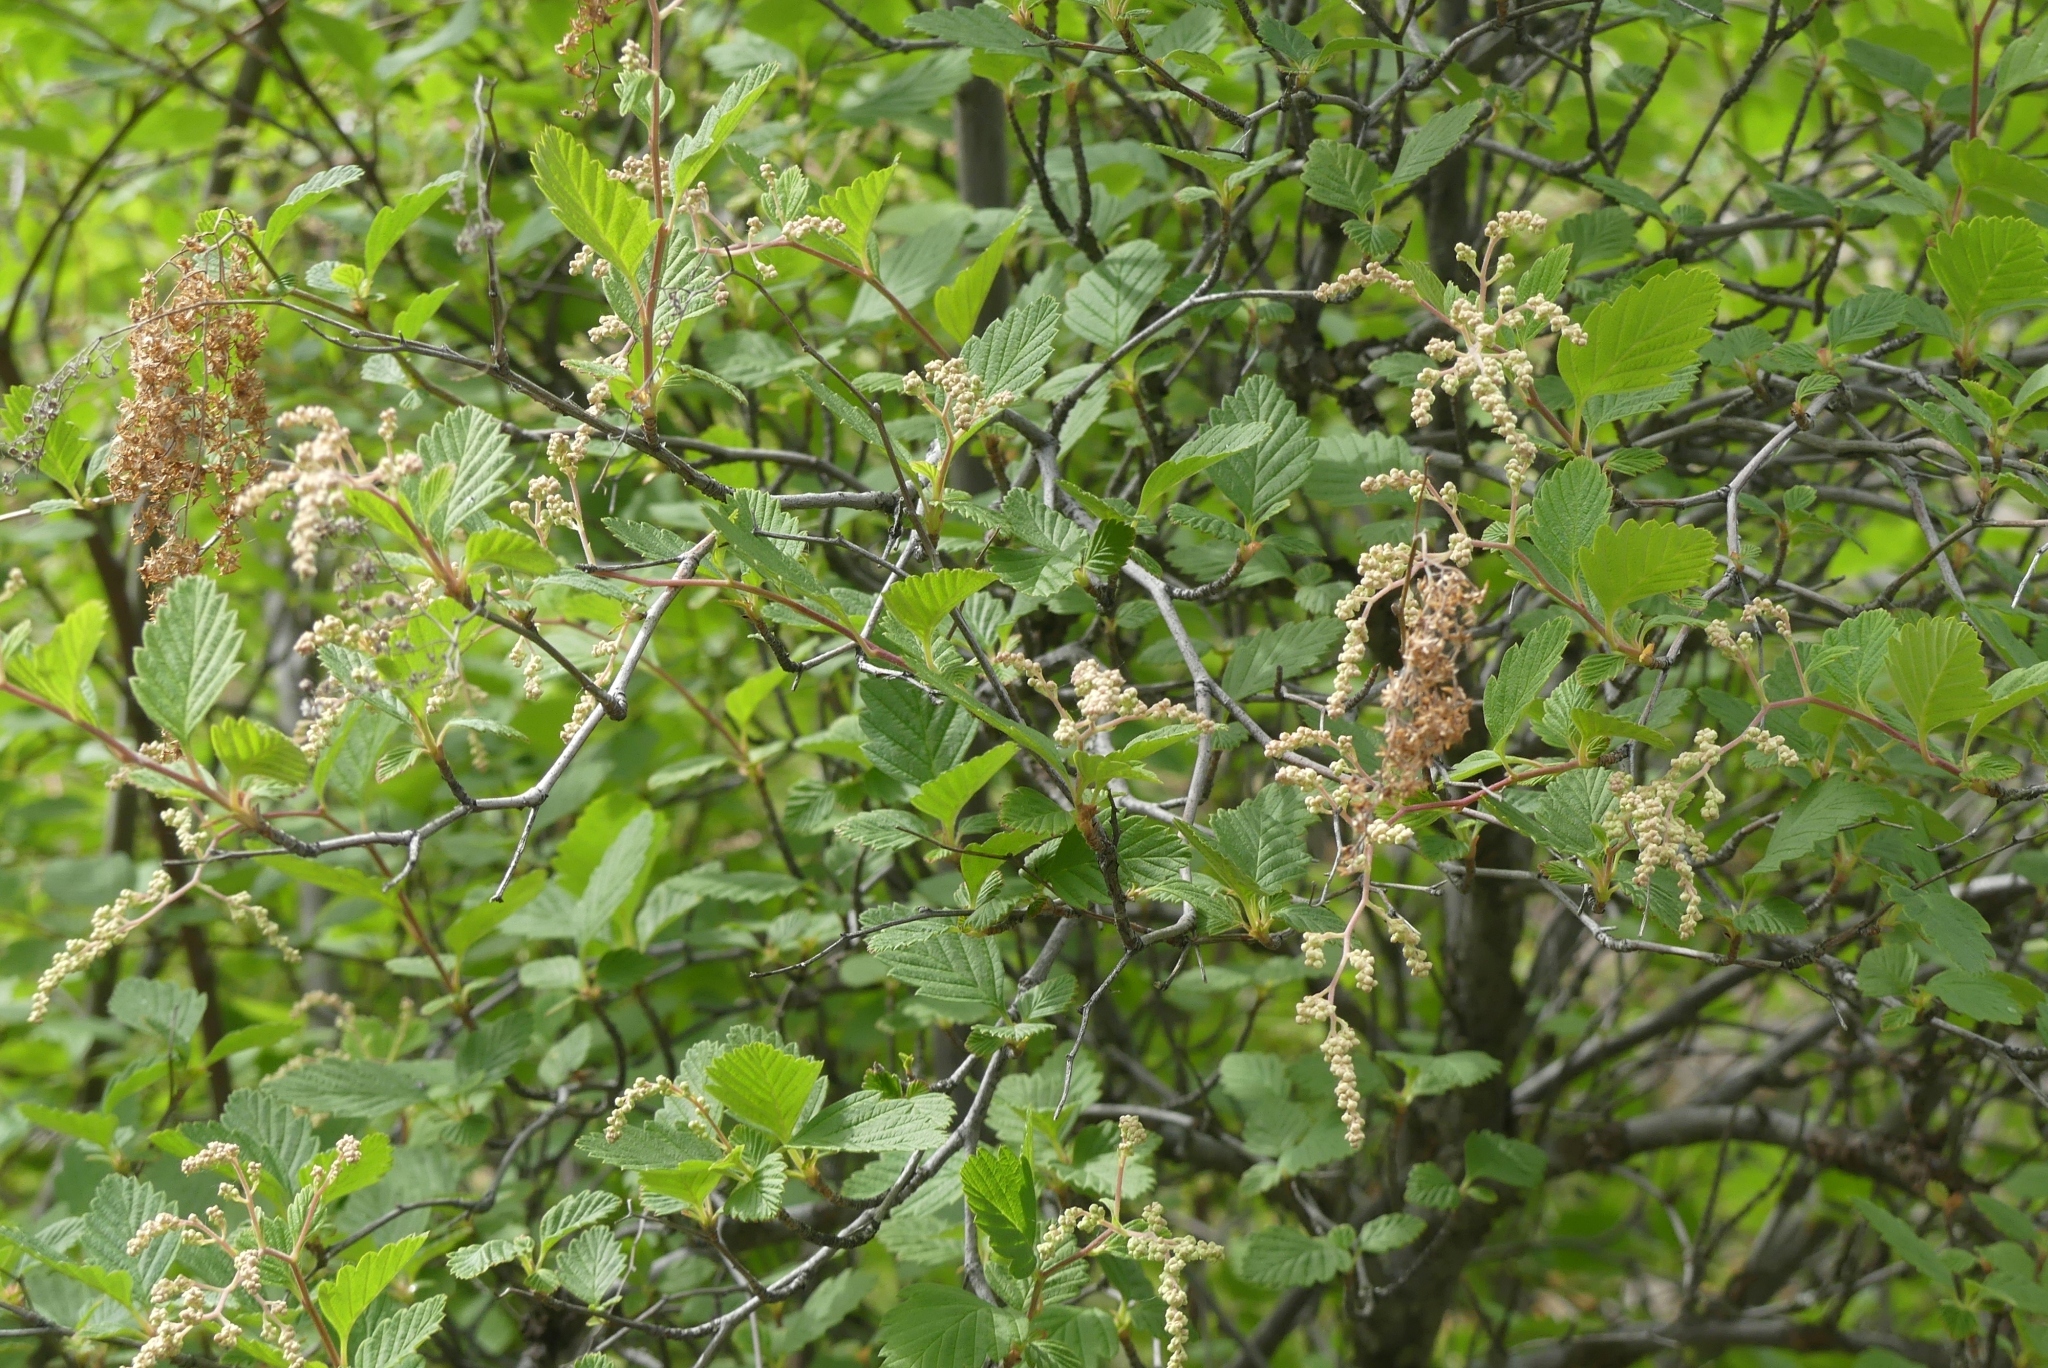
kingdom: Plantae
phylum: Tracheophyta
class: Magnoliopsida
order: Rosales
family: Rosaceae
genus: Holodiscus
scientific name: Holodiscus discolor
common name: Oceanspray
